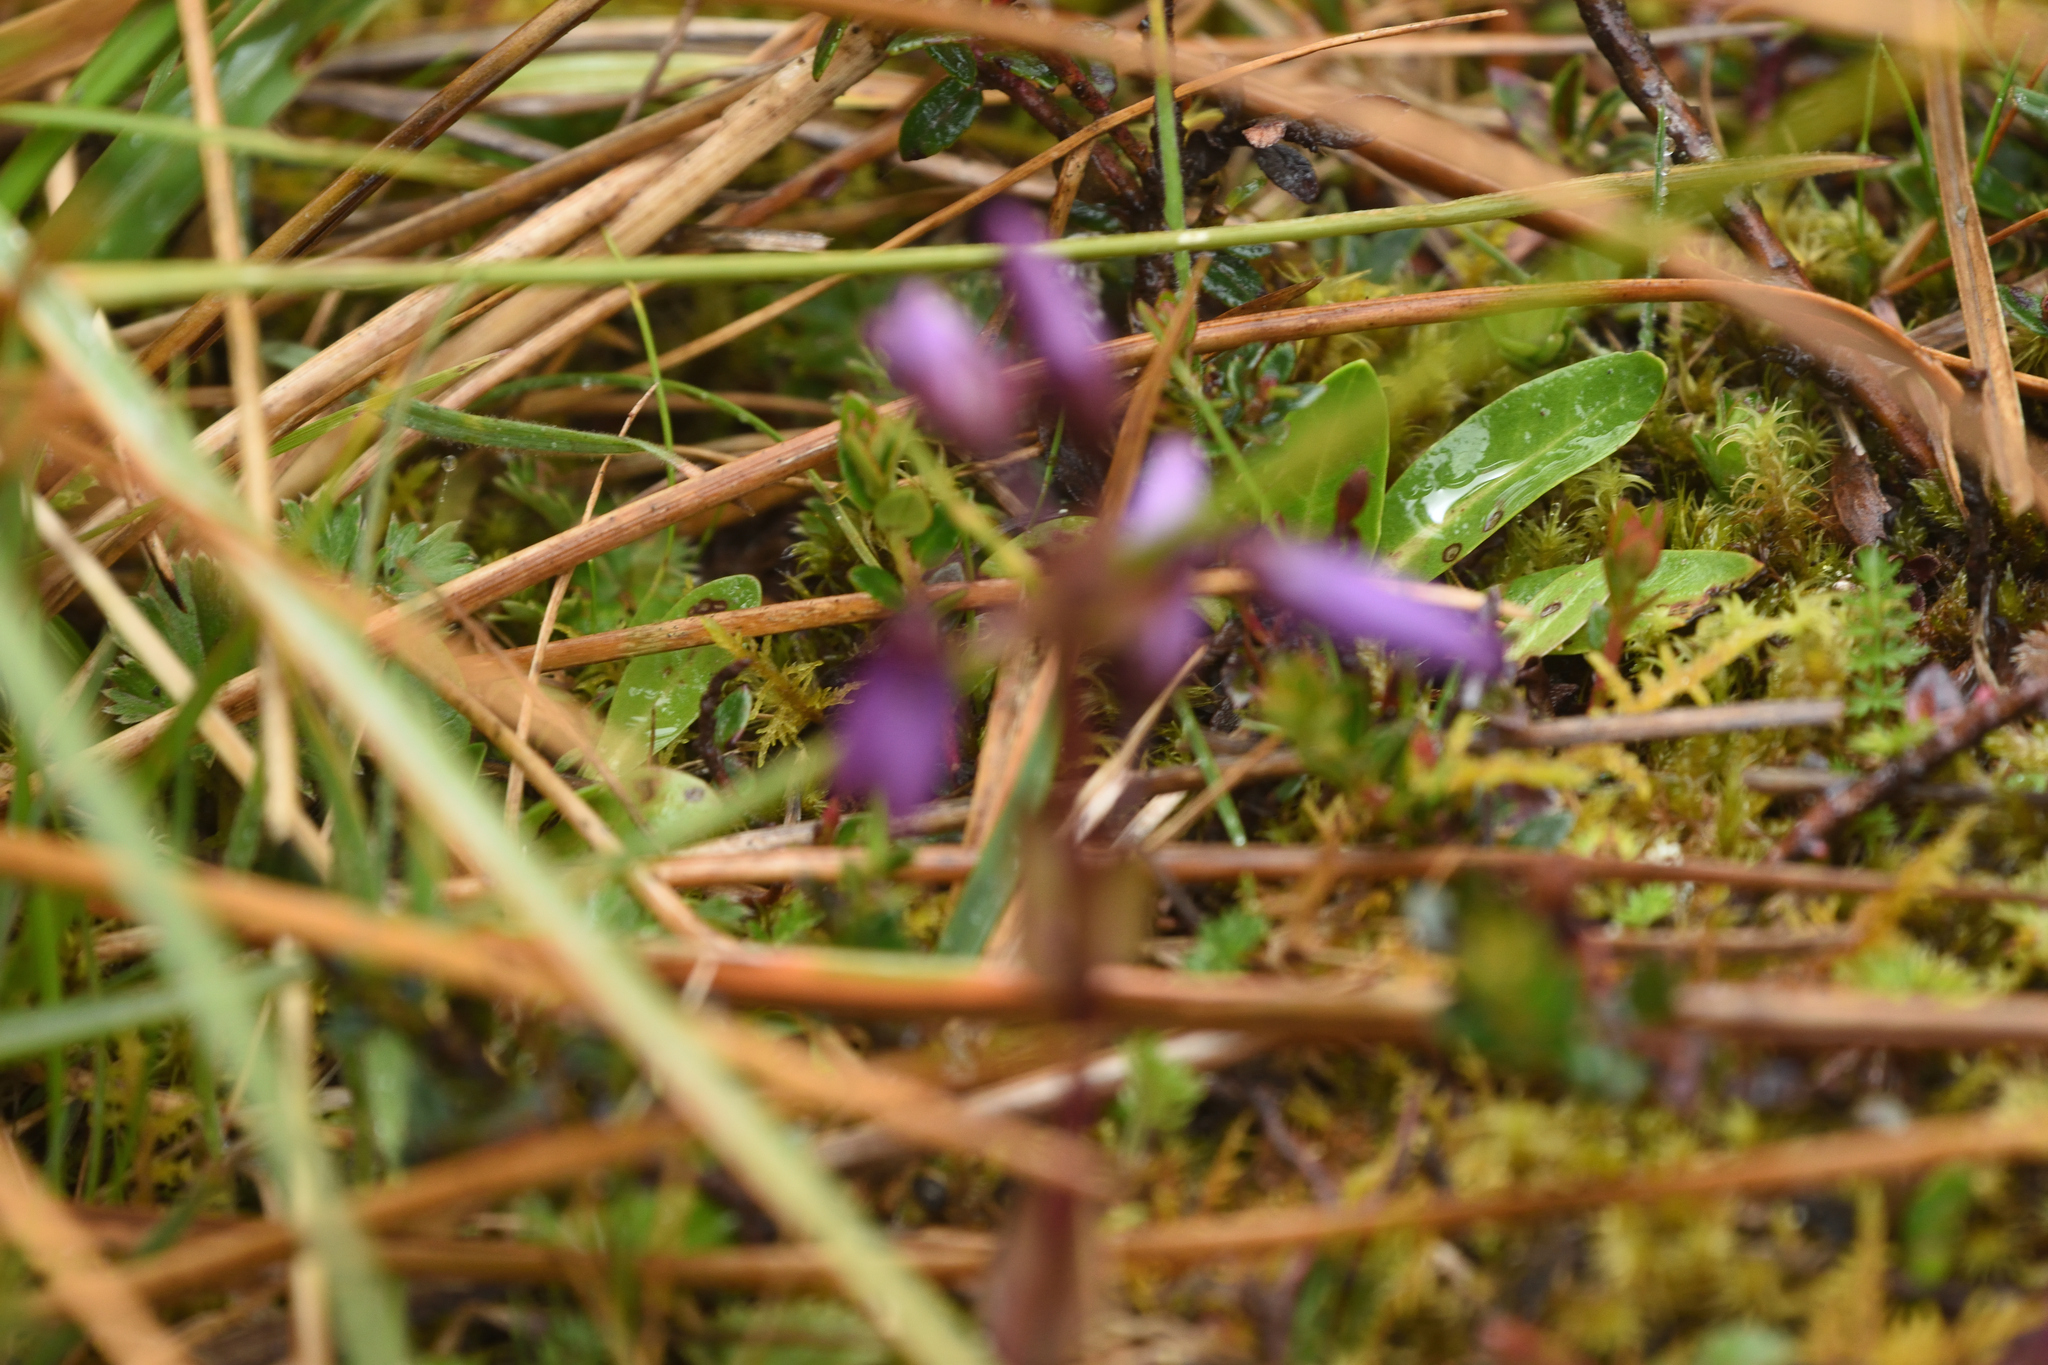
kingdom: Plantae
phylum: Tracheophyta
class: Magnoliopsida
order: Gentianales
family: Gentianaceae
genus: Gentianella
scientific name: Gentianella rapunculoides
